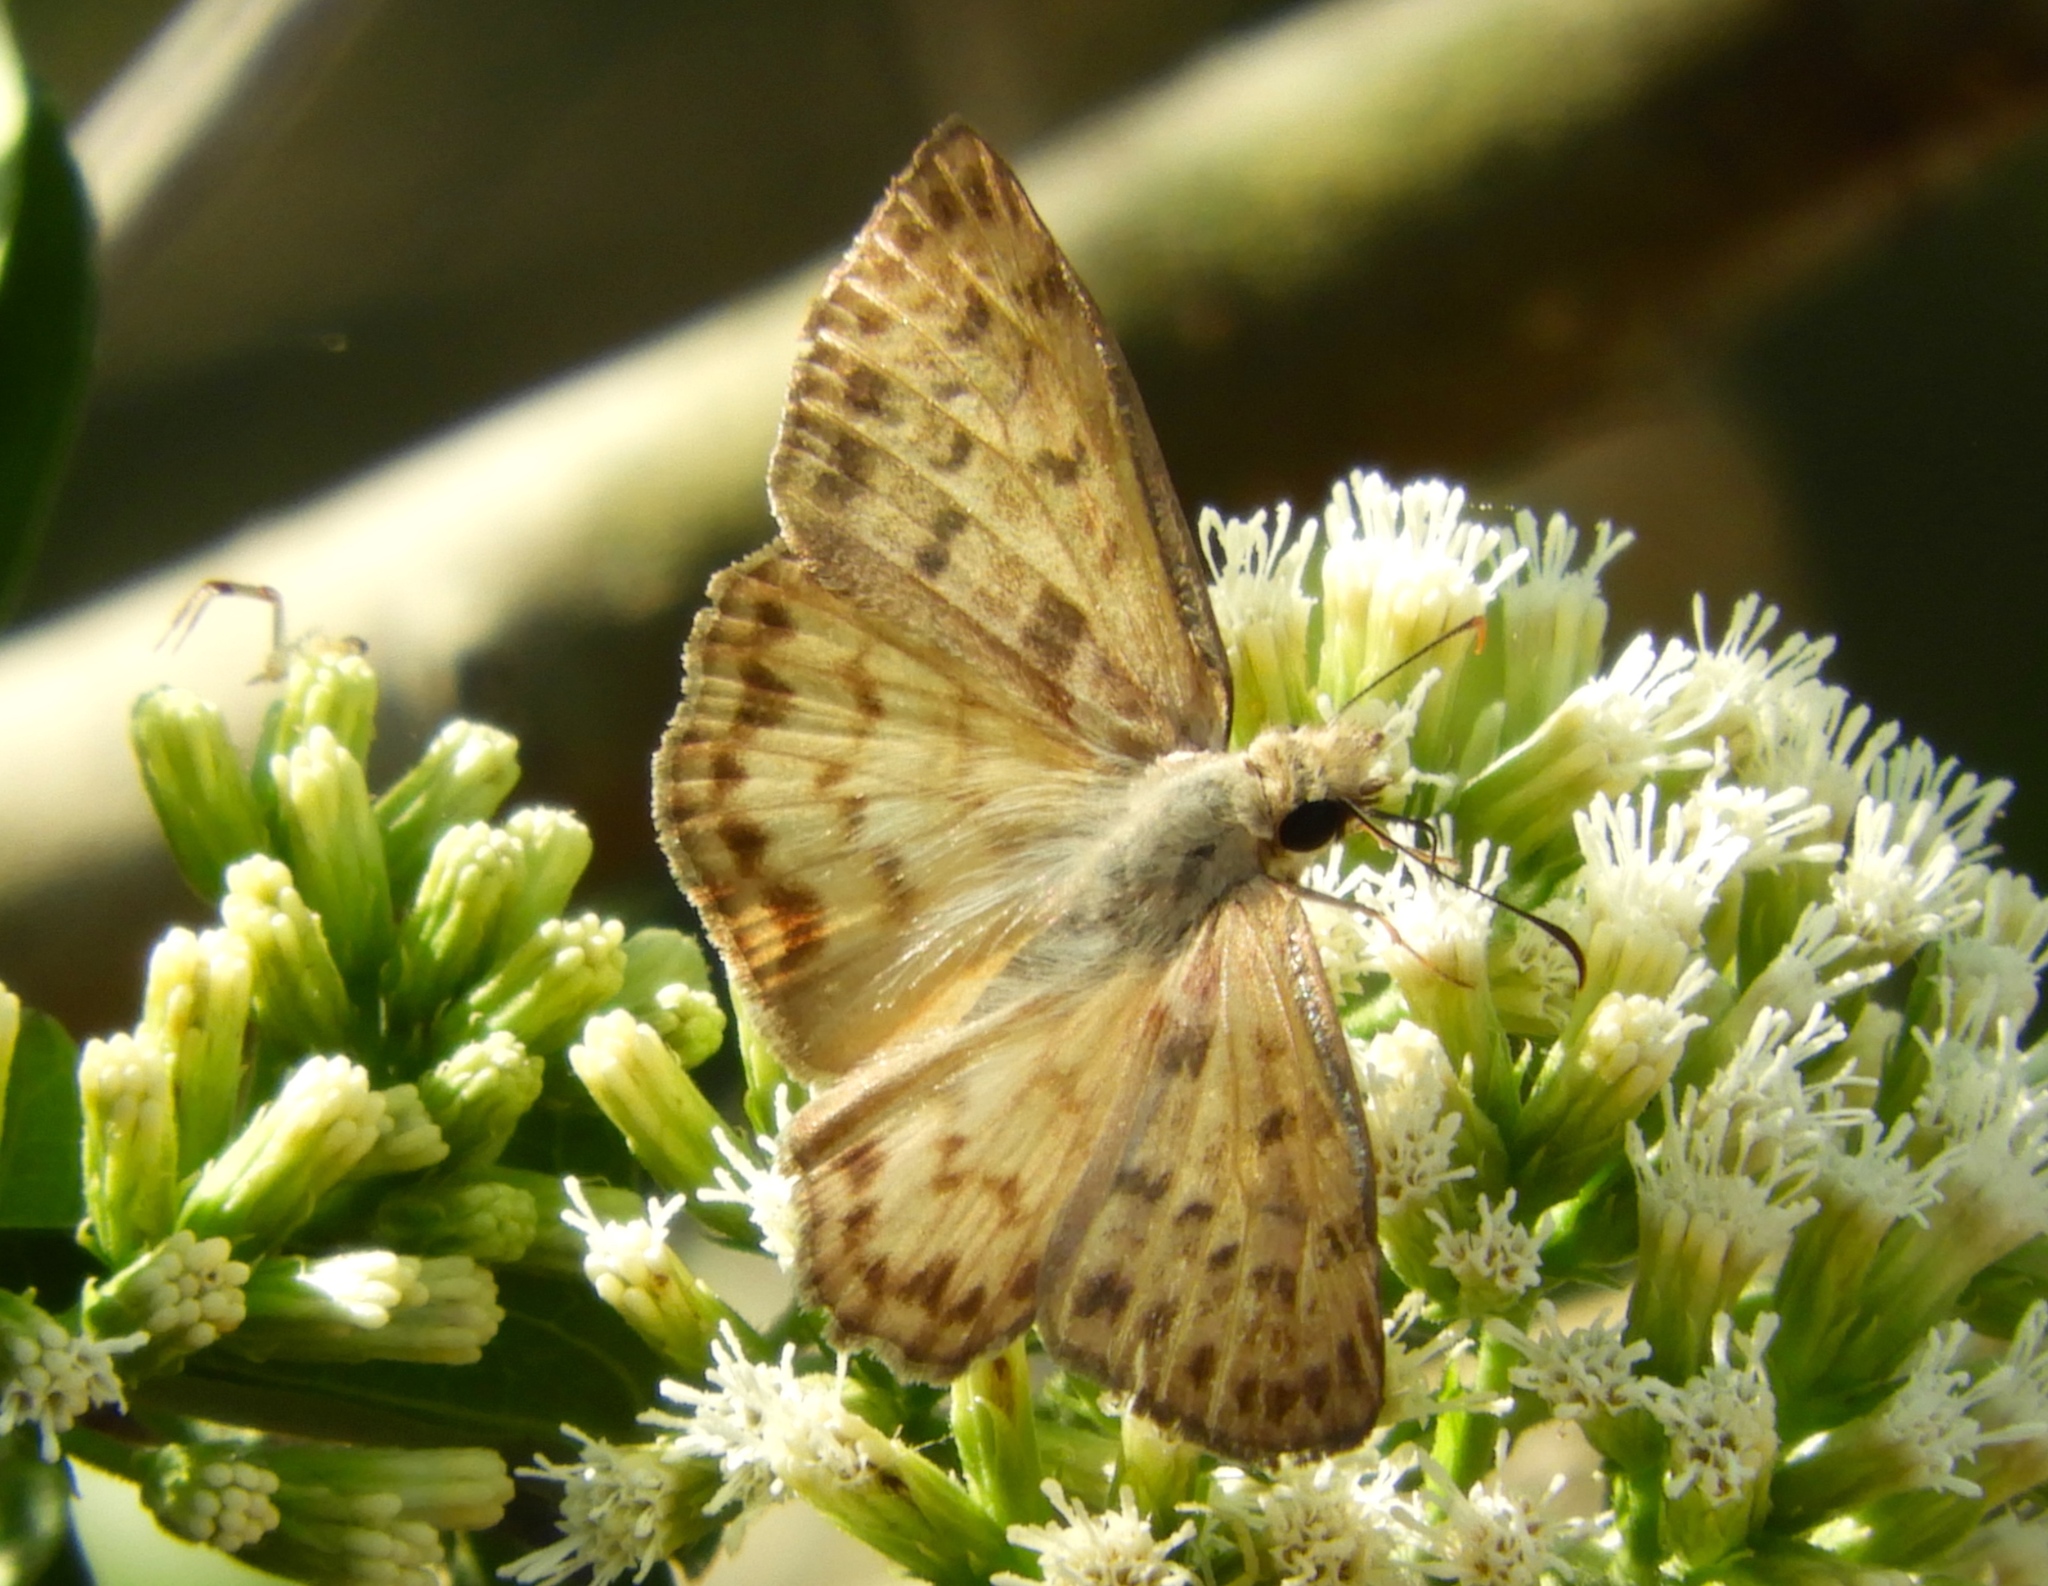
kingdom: Animalia
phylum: Arthropoda
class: Insecta
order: Lepidoptera
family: Hesperiidae
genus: Timochares
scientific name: Timochares ruptifasciata
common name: Brown-banded skipper
